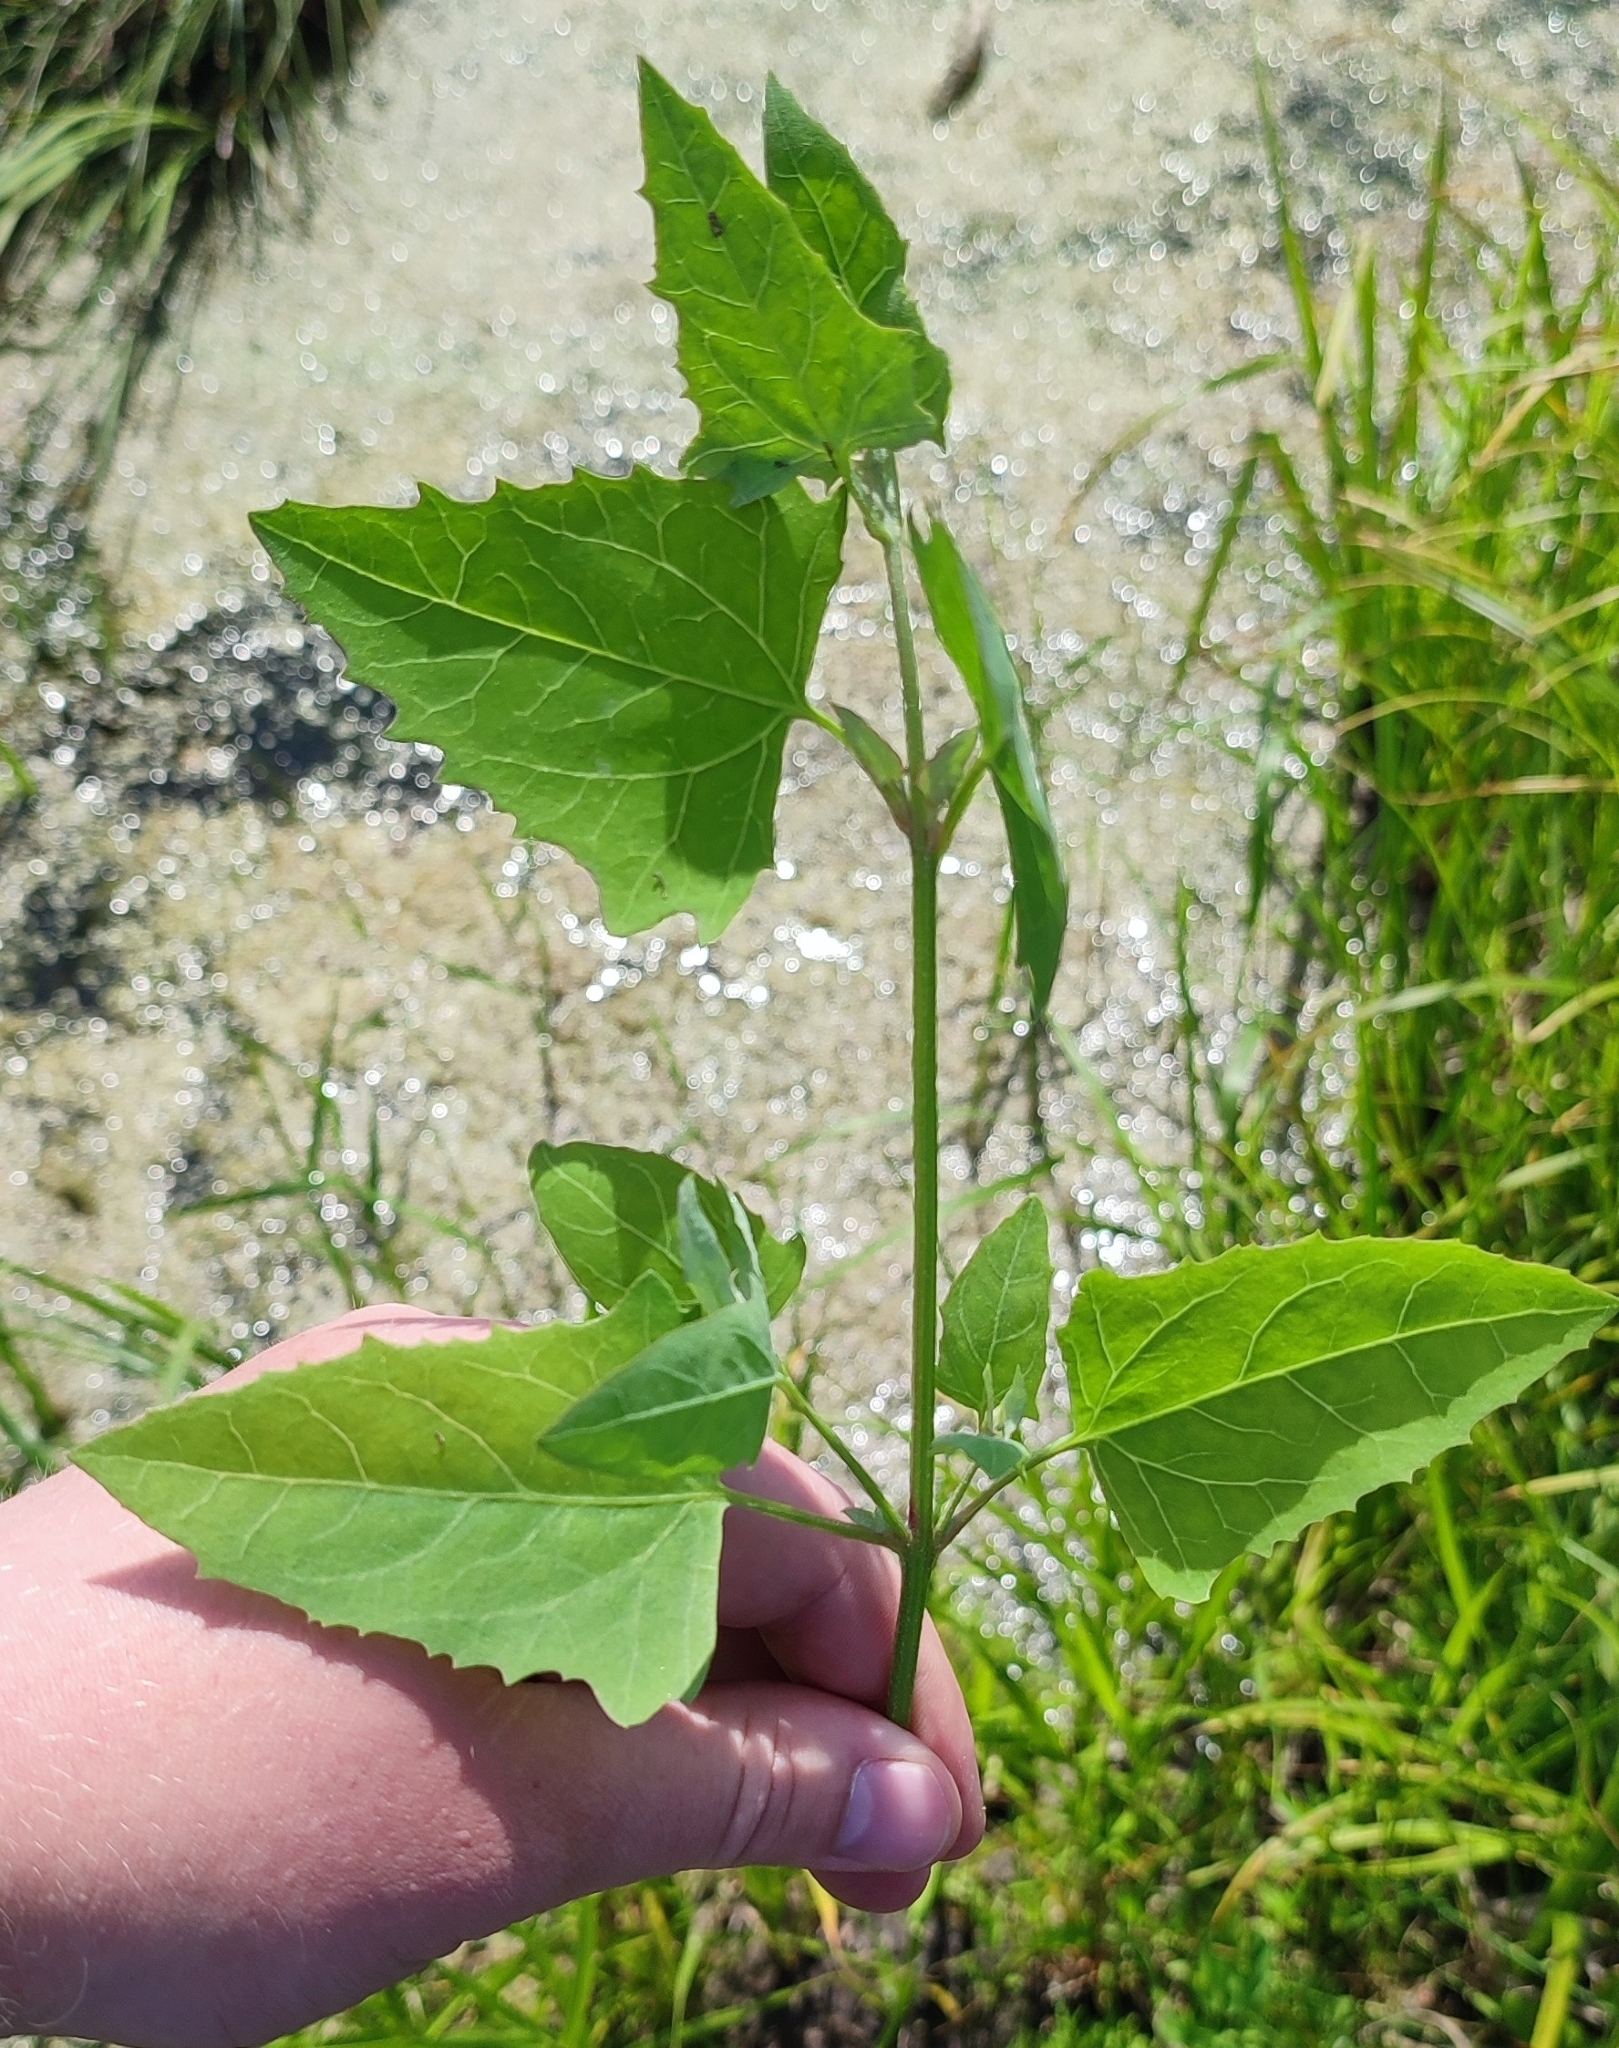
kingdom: Plantae
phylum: Tracheophyta
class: Magnoliopsida
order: Caryophyllales
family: Amaranthaceae
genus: Atriplex
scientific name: Atriplex prostrata
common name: Spear-leaved orache
